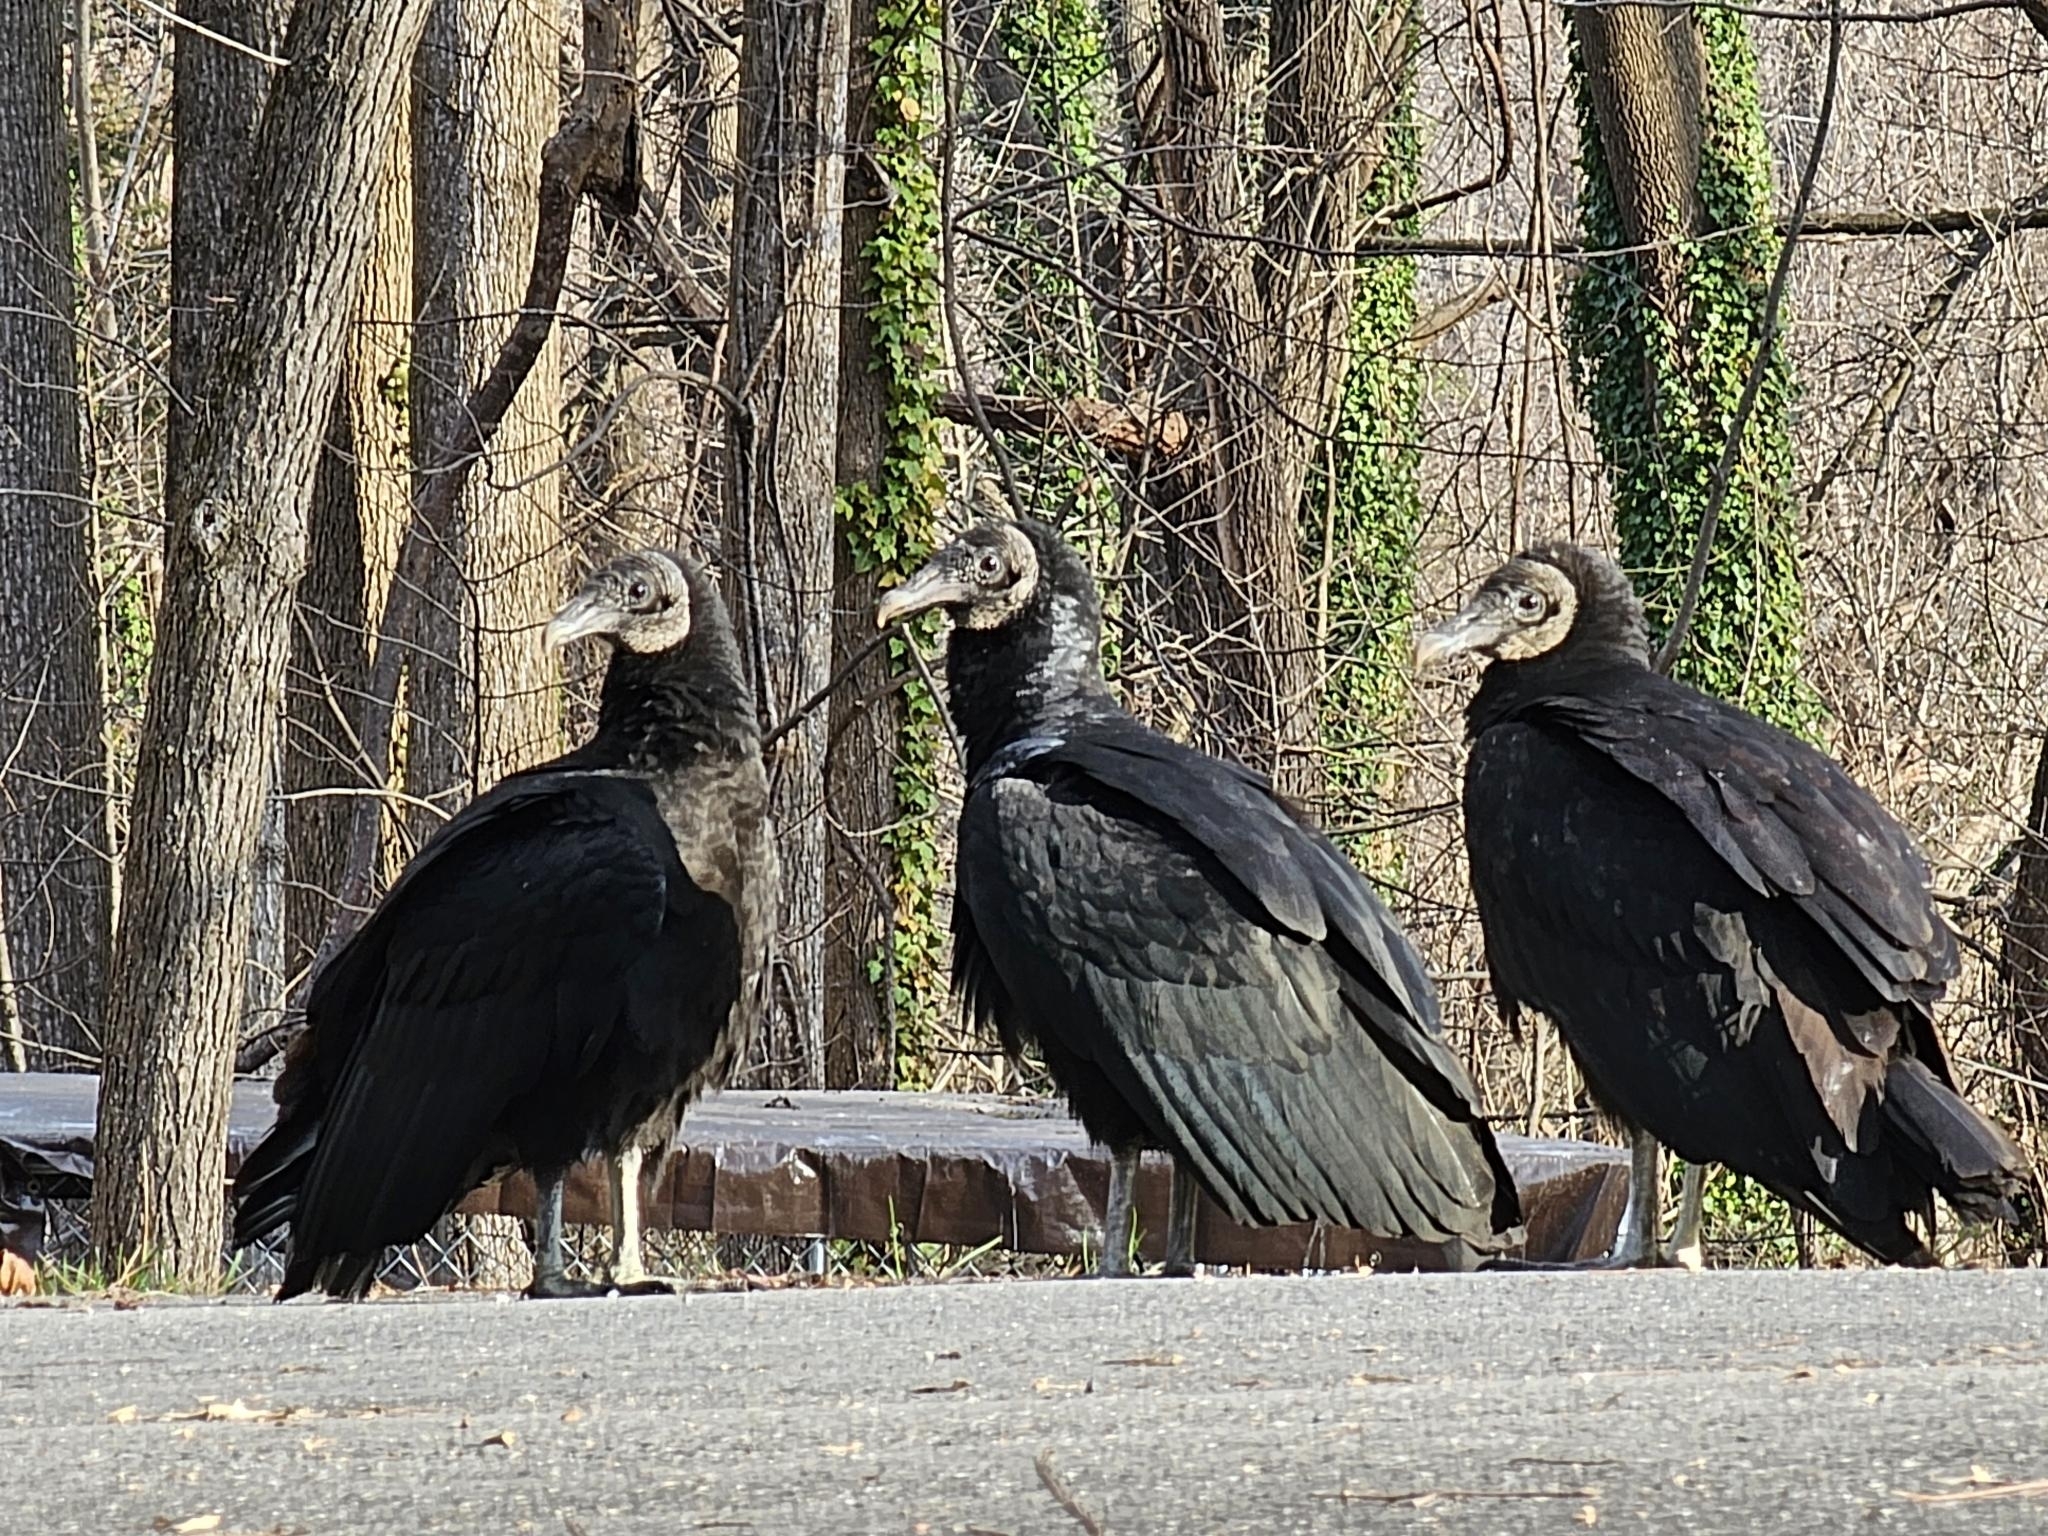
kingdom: Animalia
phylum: Chordata
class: Aves
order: Accipitriformes
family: Cathartidae
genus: Coragyps
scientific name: Coragyps atratus
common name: Black vulture
